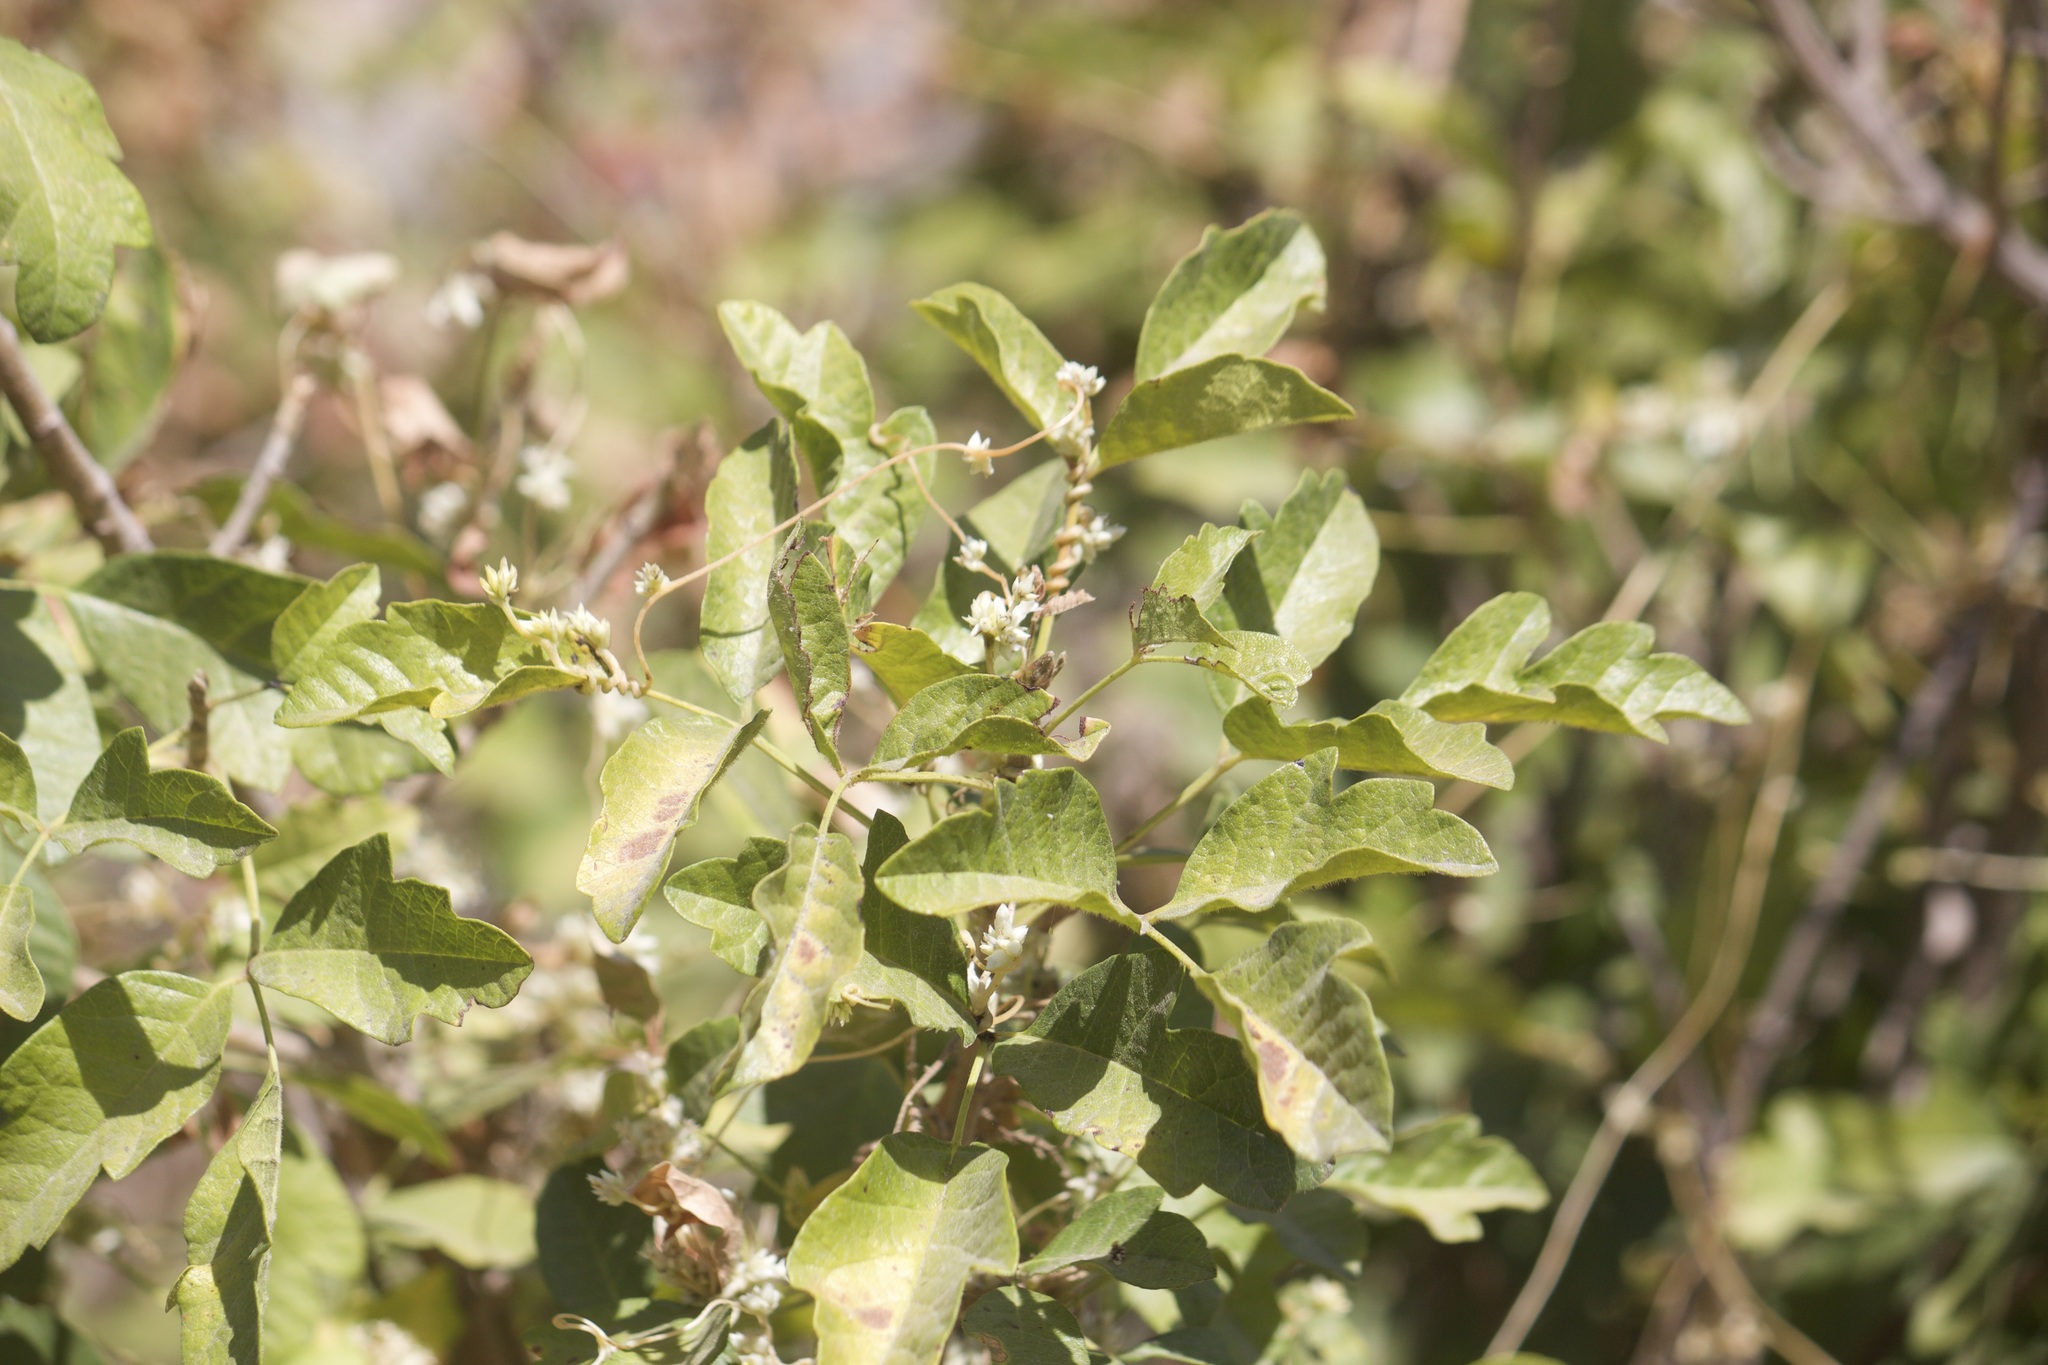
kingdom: Plantae
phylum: Tracheophyta
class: Magnoliopsida
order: Sapindales
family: Anacardiaceae
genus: Toxicodendron
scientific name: Toxicodendron diversilobum
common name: Pacific poison-oak
